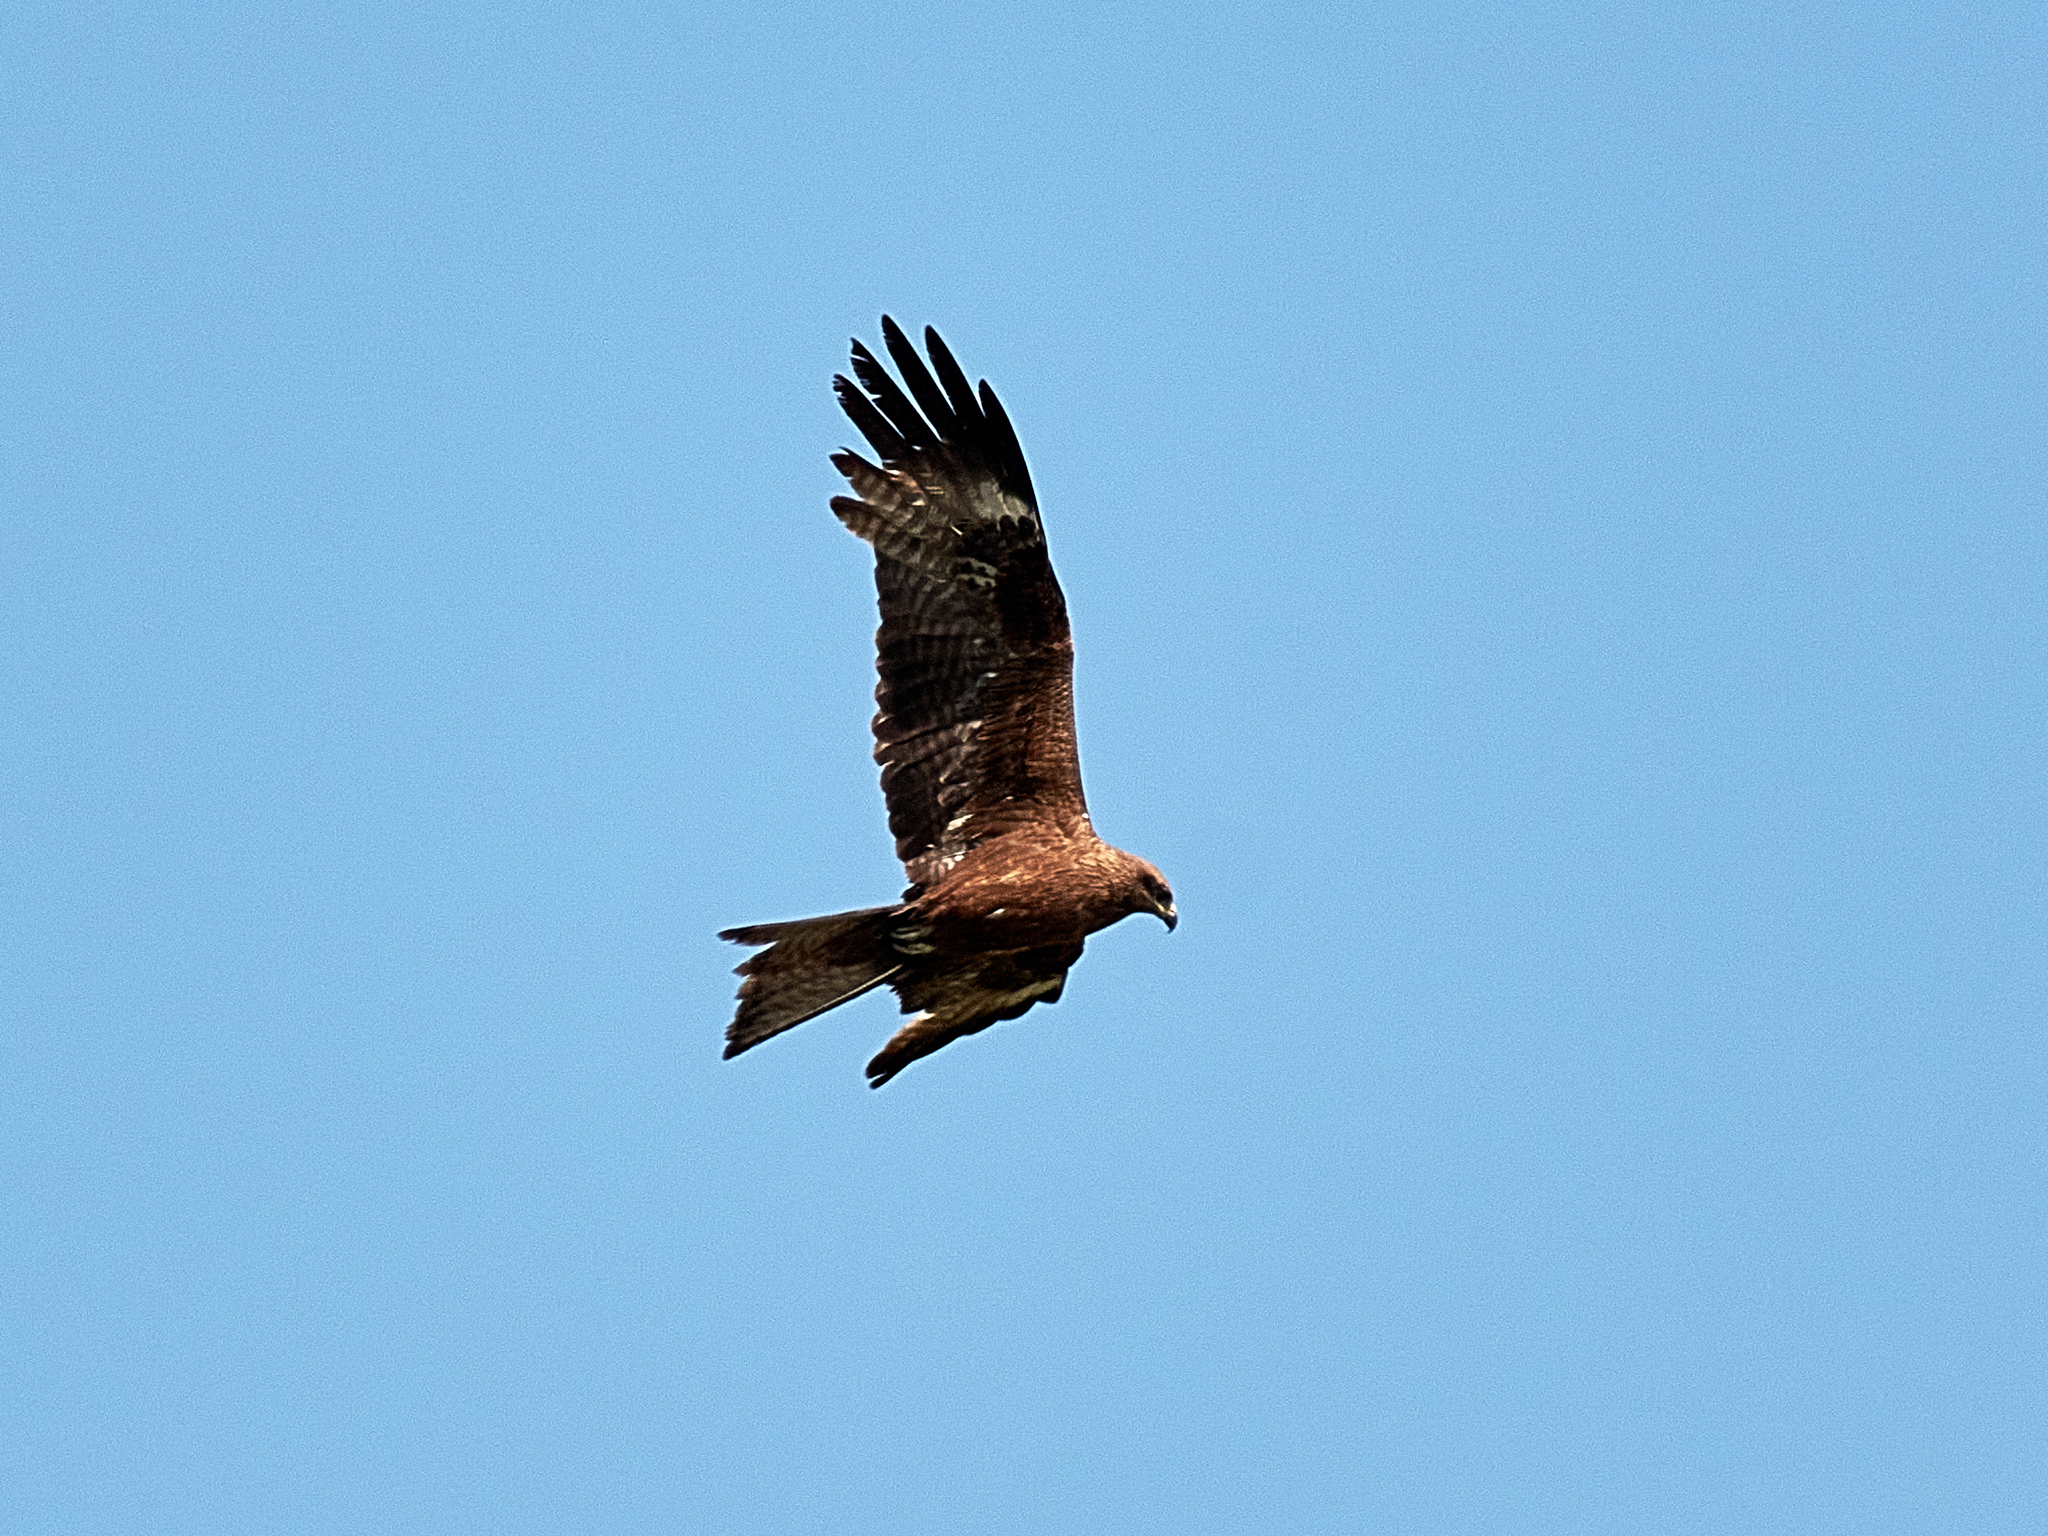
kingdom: Animalia
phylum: Chordata
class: Aves
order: Accipitriformes
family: Accipitridae
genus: Milvus
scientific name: Milvus migrans
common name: Black kite
